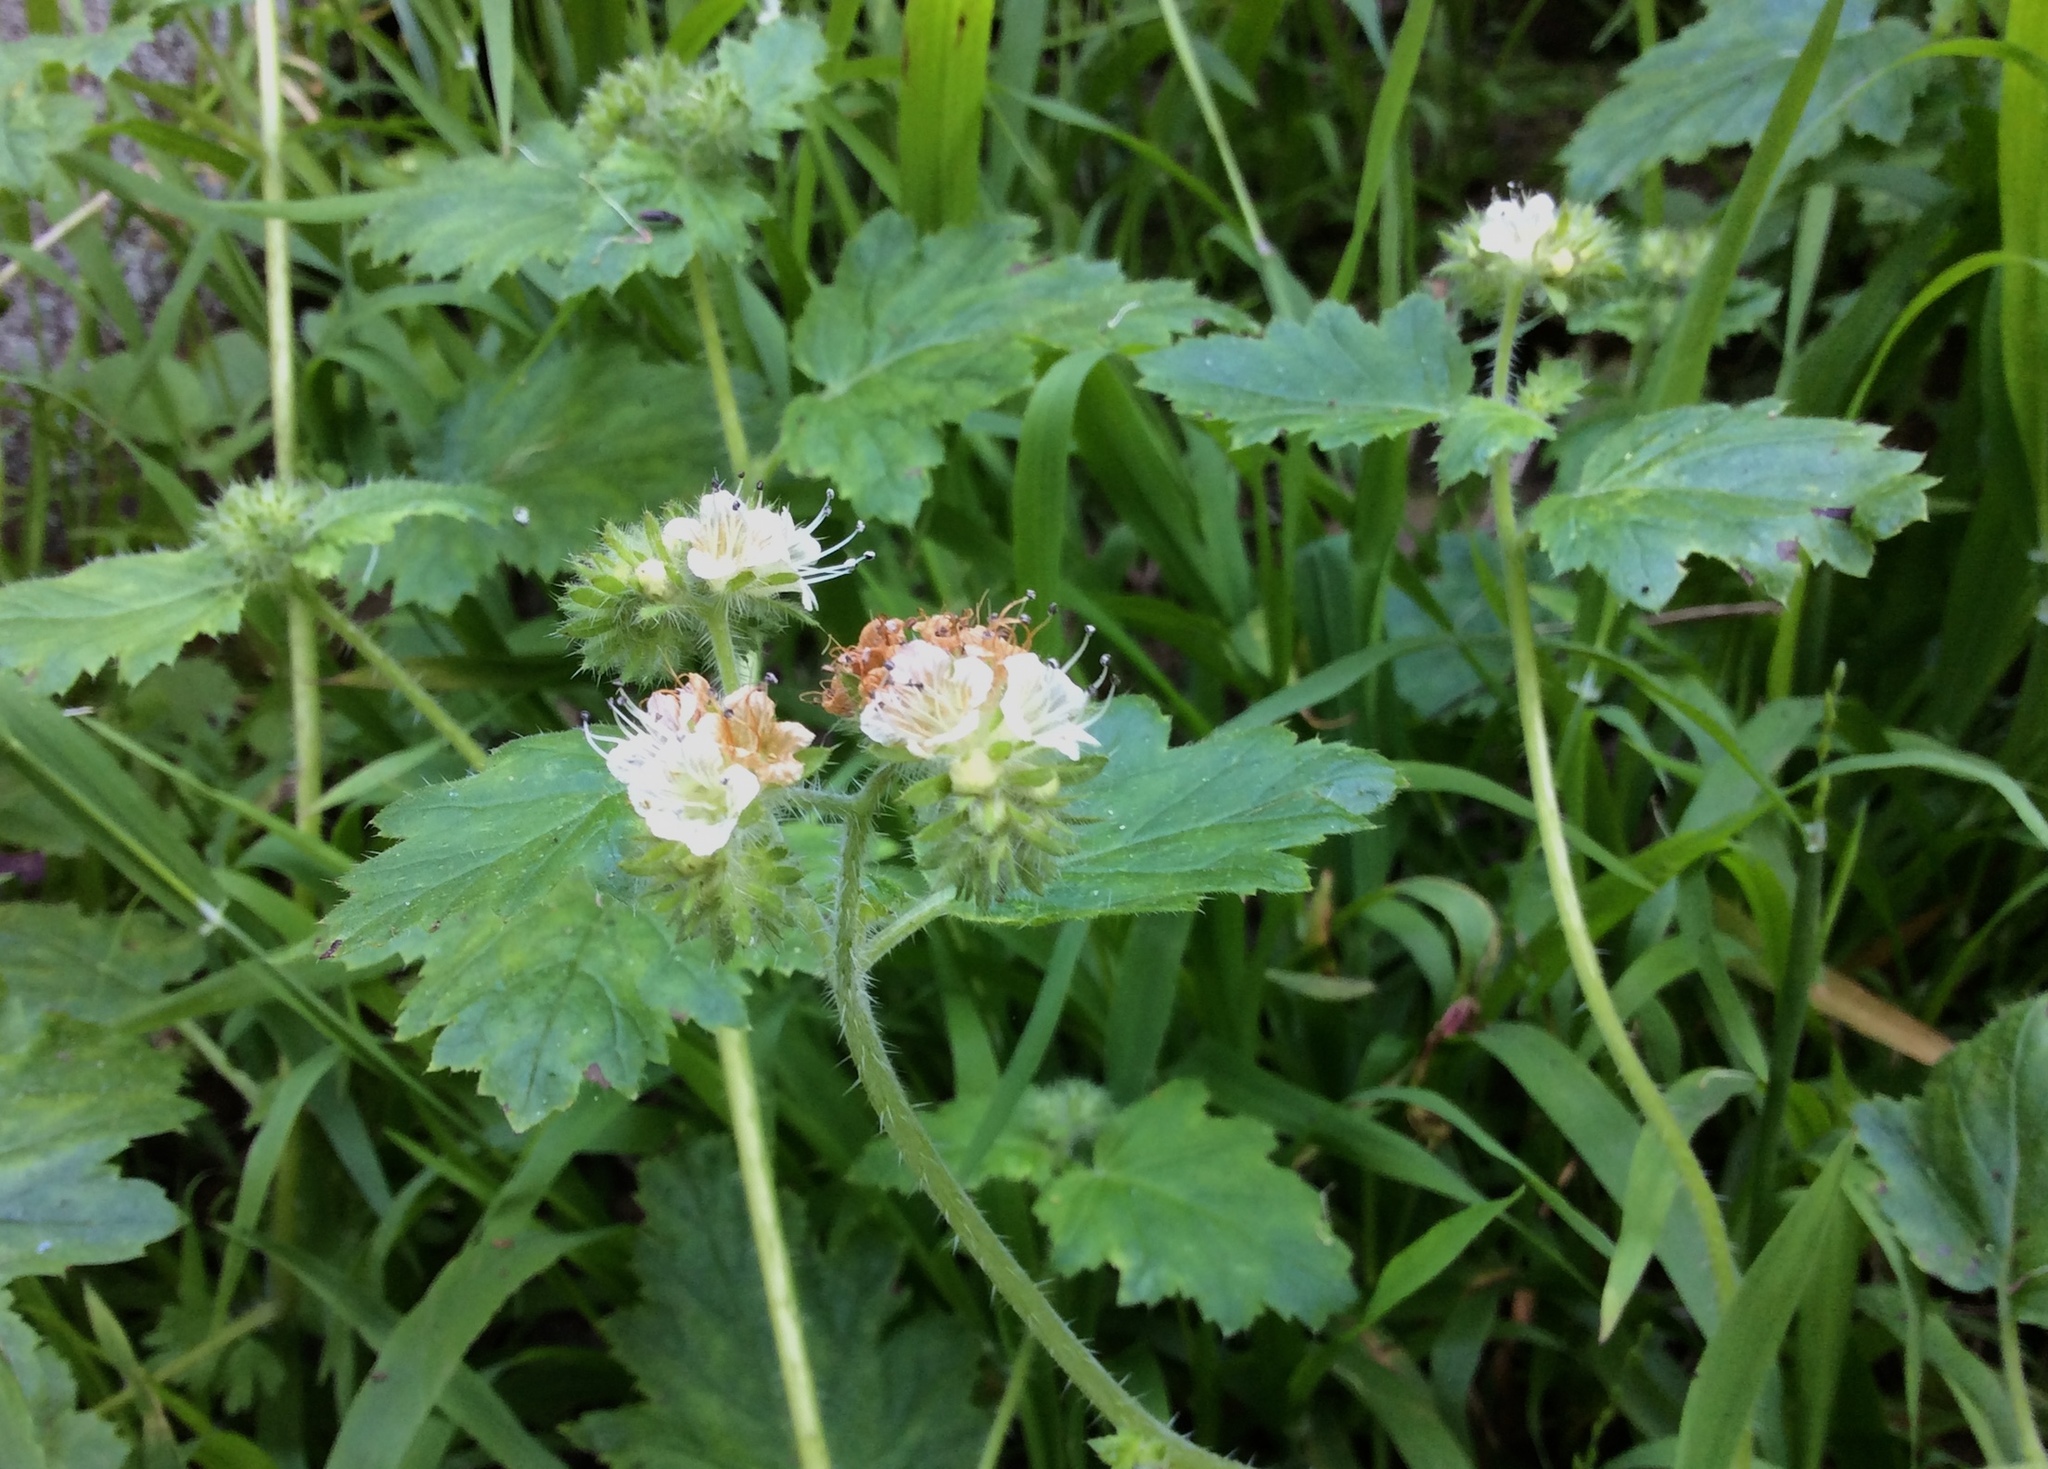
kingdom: Plantae
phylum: Tracheophyta
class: Magnoliopsida
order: Boraginales
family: Hydrophyllaceae
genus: Phacelia
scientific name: Phacelia malvifolia
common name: Mallow-leaf phacelia
